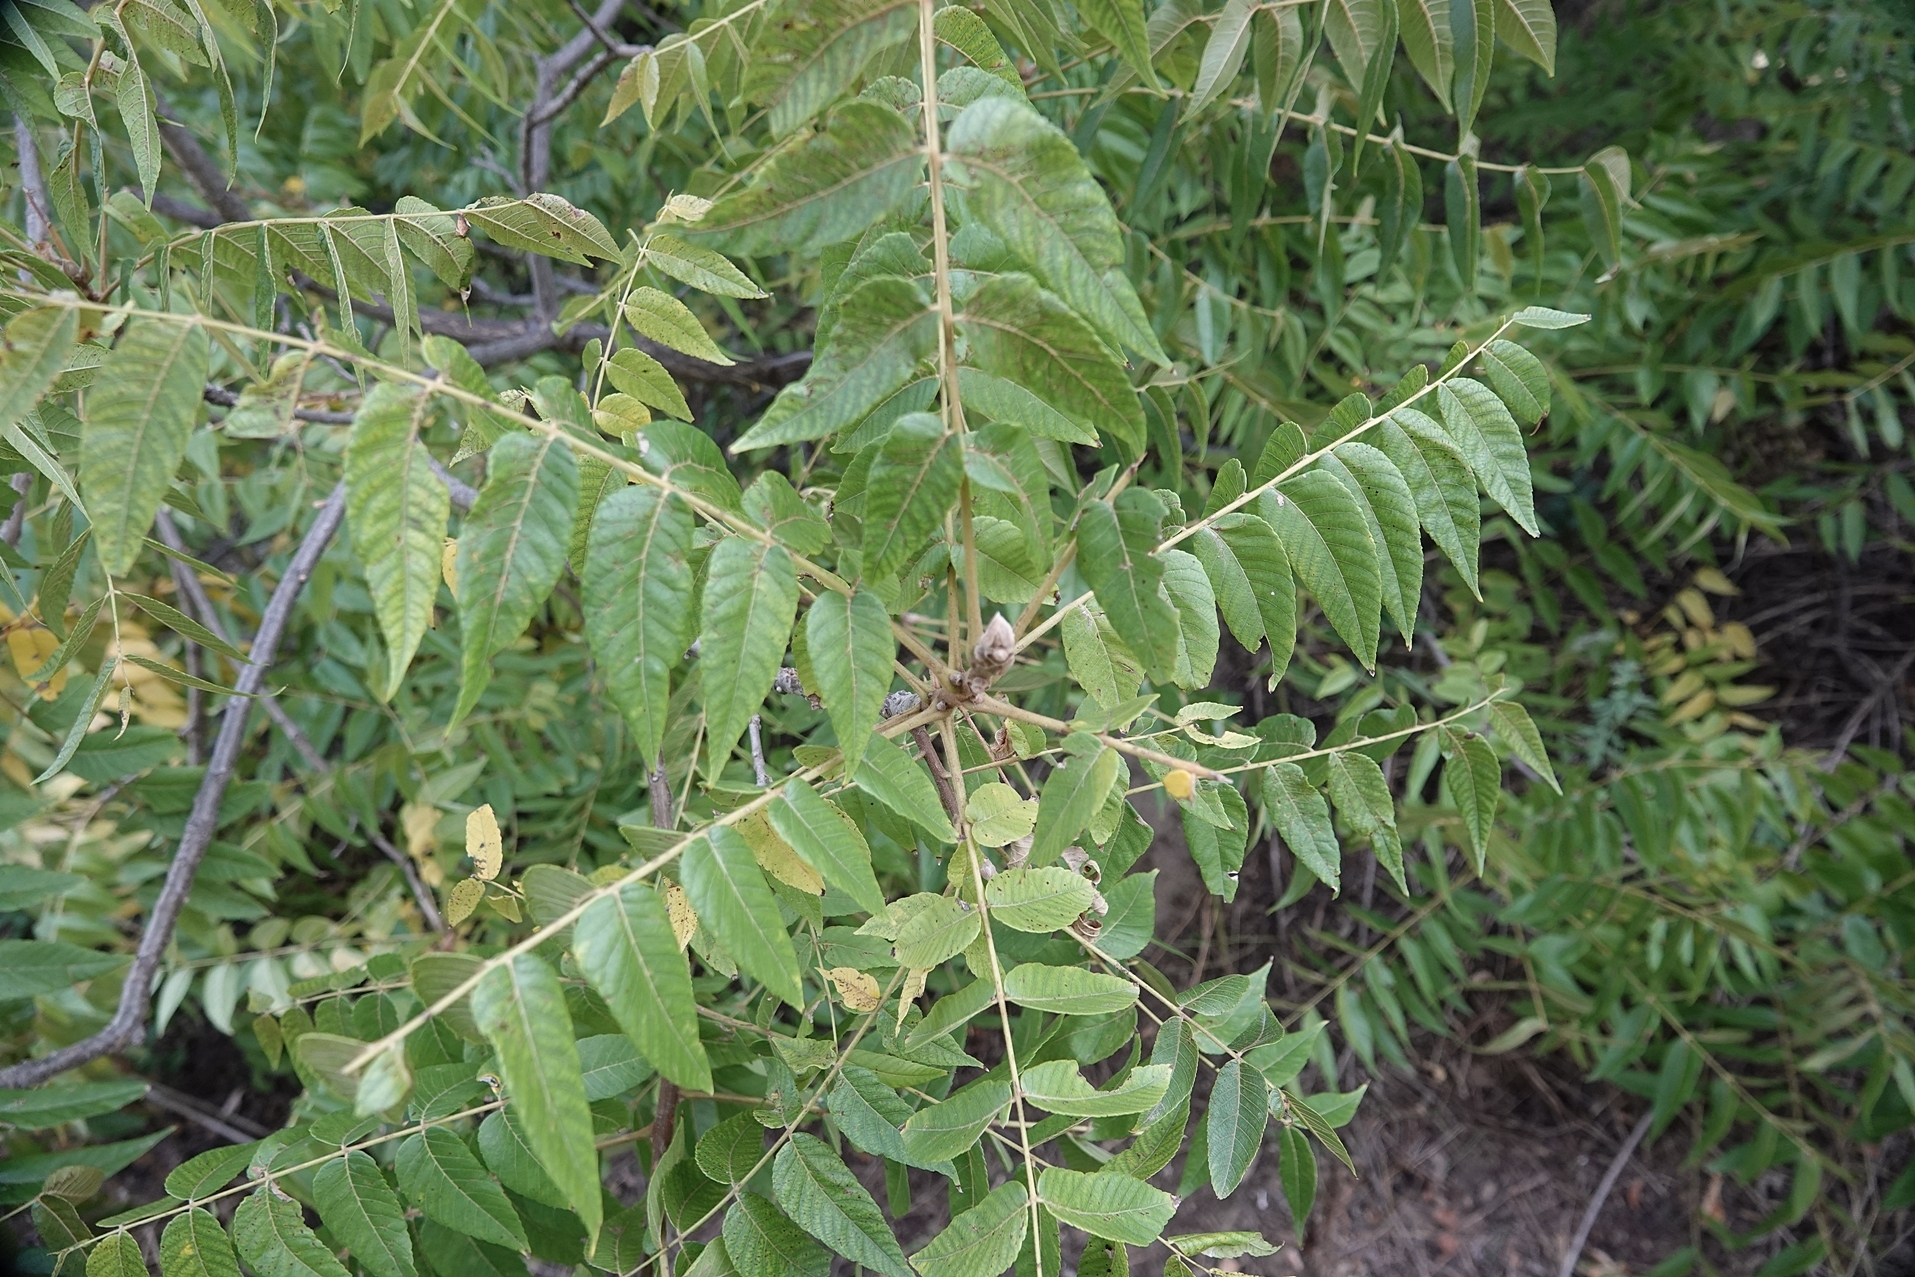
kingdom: Plantae
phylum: Tracheophyta
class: Magnoliopsida
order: Fagales
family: Juglandaceae
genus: Juglans
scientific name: Juglans nigra
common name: Black walnut
